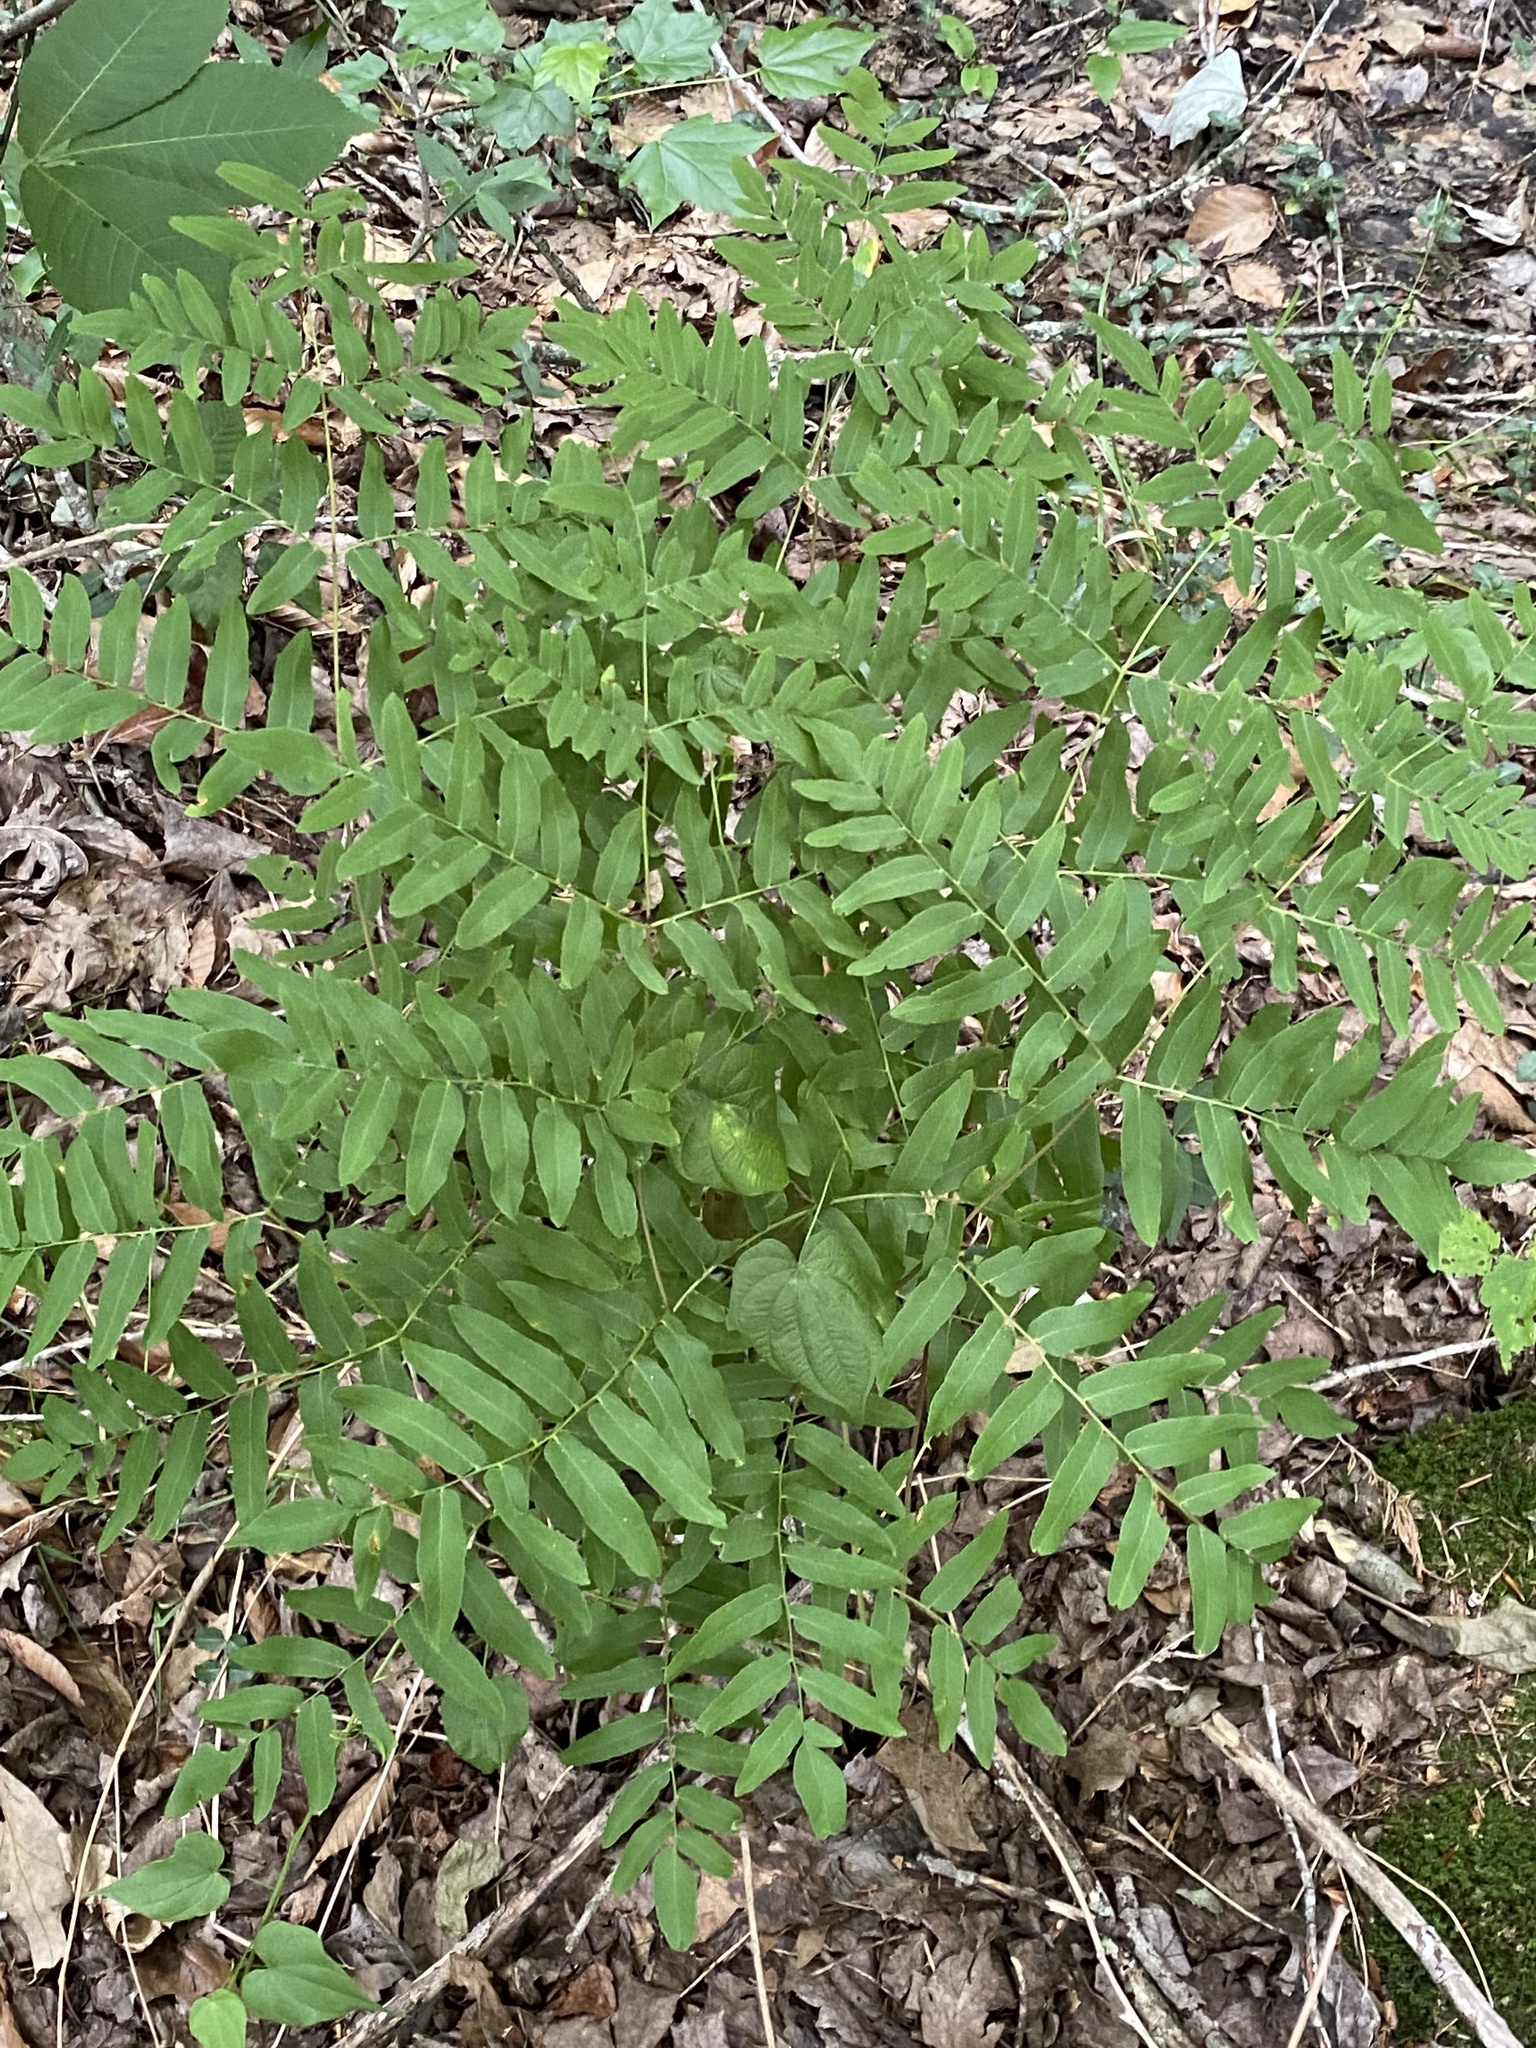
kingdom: Plantae
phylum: Tracheophyta
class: Polypodiopsida
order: Osmundales
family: Osmundaceae
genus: Osmunda
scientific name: Osmunda spectabilis
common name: American royal fern
